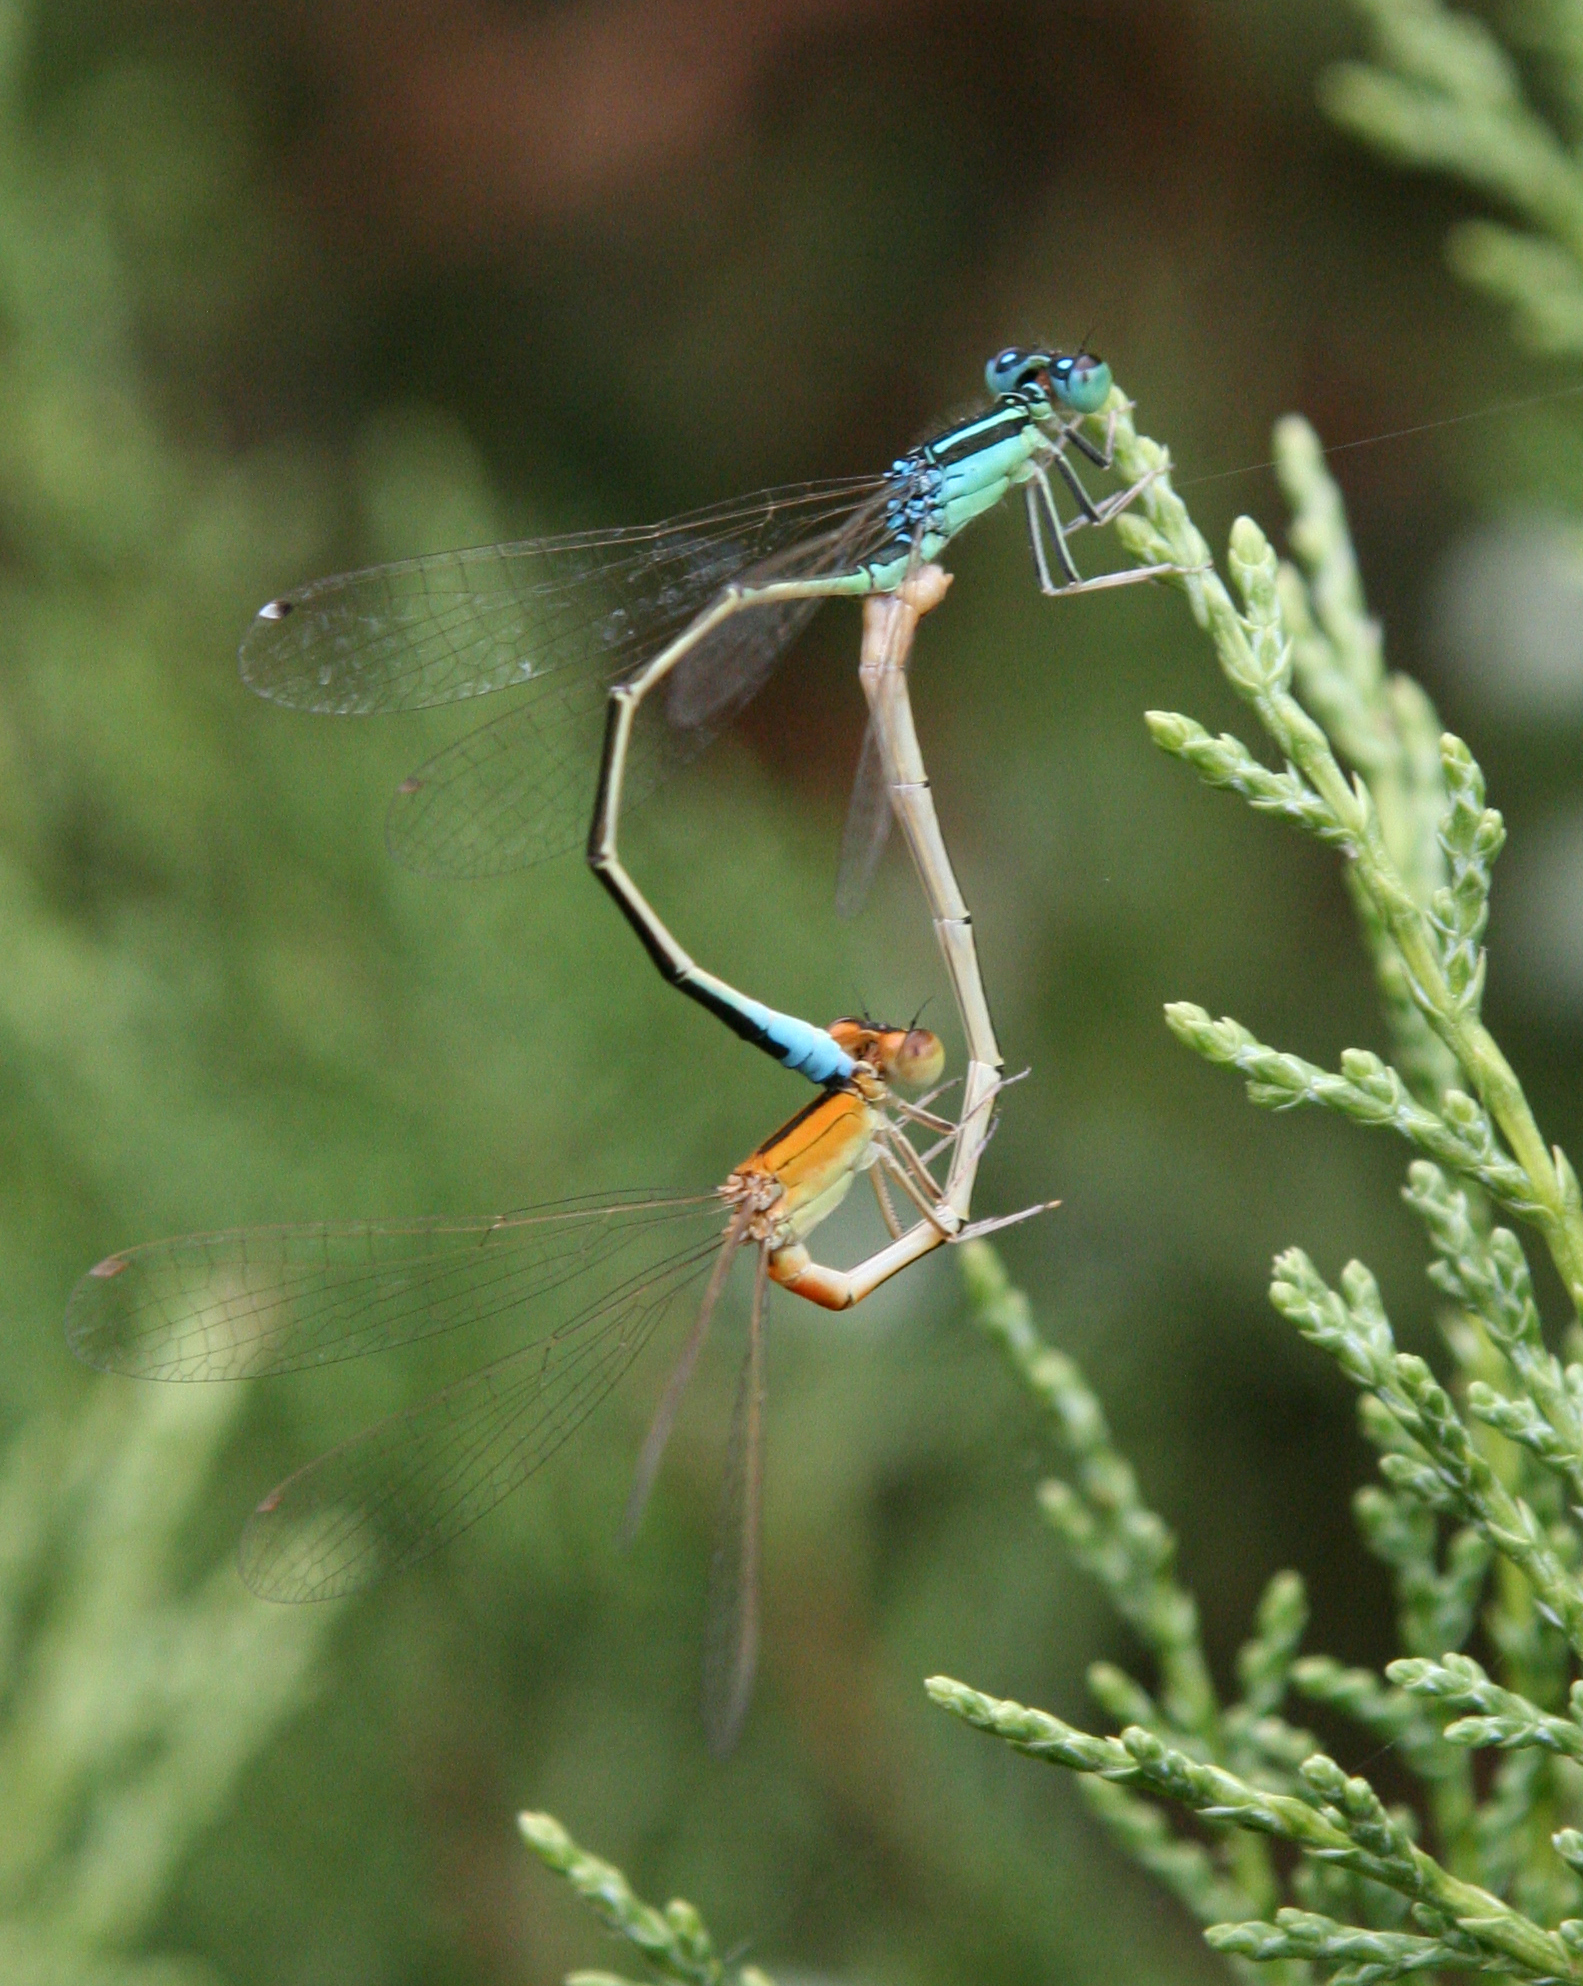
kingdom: Animalia
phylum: Arthropoda
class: Insecta
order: Odonata
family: Coenagrionidae
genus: Ischnura
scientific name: Ischnura pumilio
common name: Scarce blue-tailed damselfly
